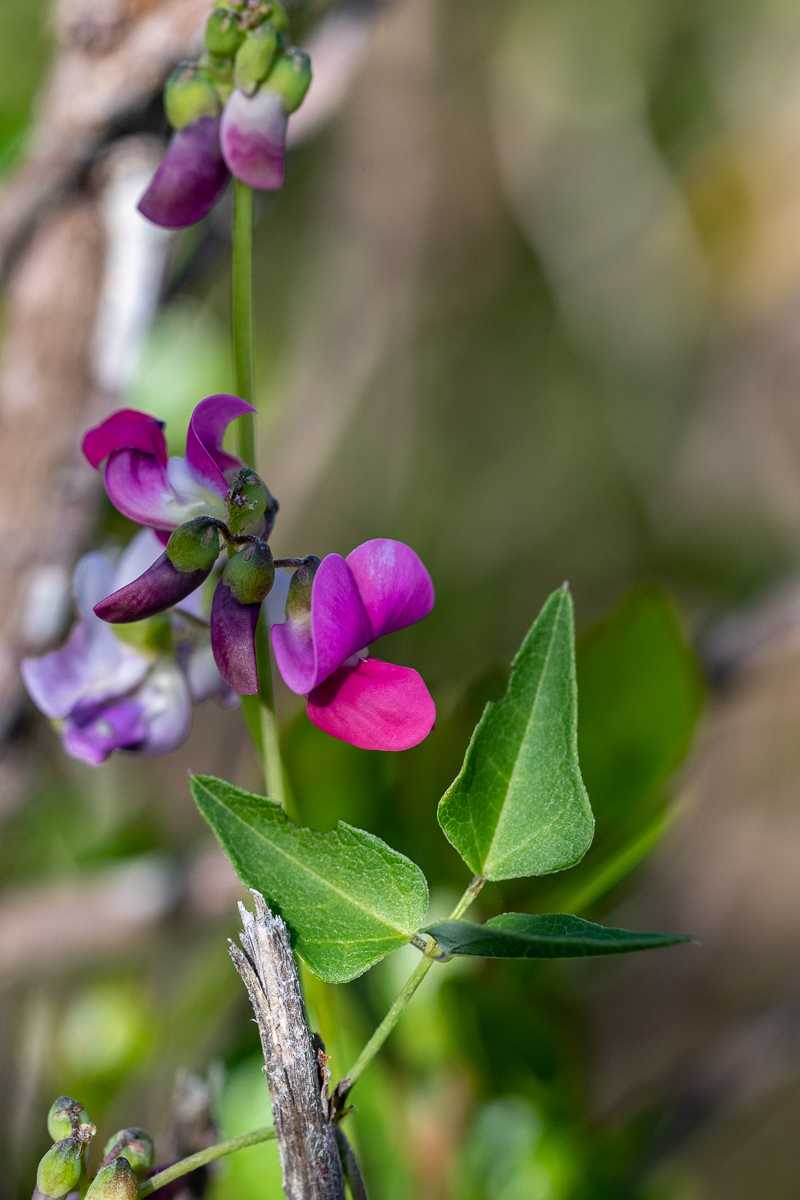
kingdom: Plantae
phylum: Tracheophyta
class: Magnoliopsida
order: Fabales
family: Fabaceae
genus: Dipogon
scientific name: Dipogon lignosus
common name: Okie bean
